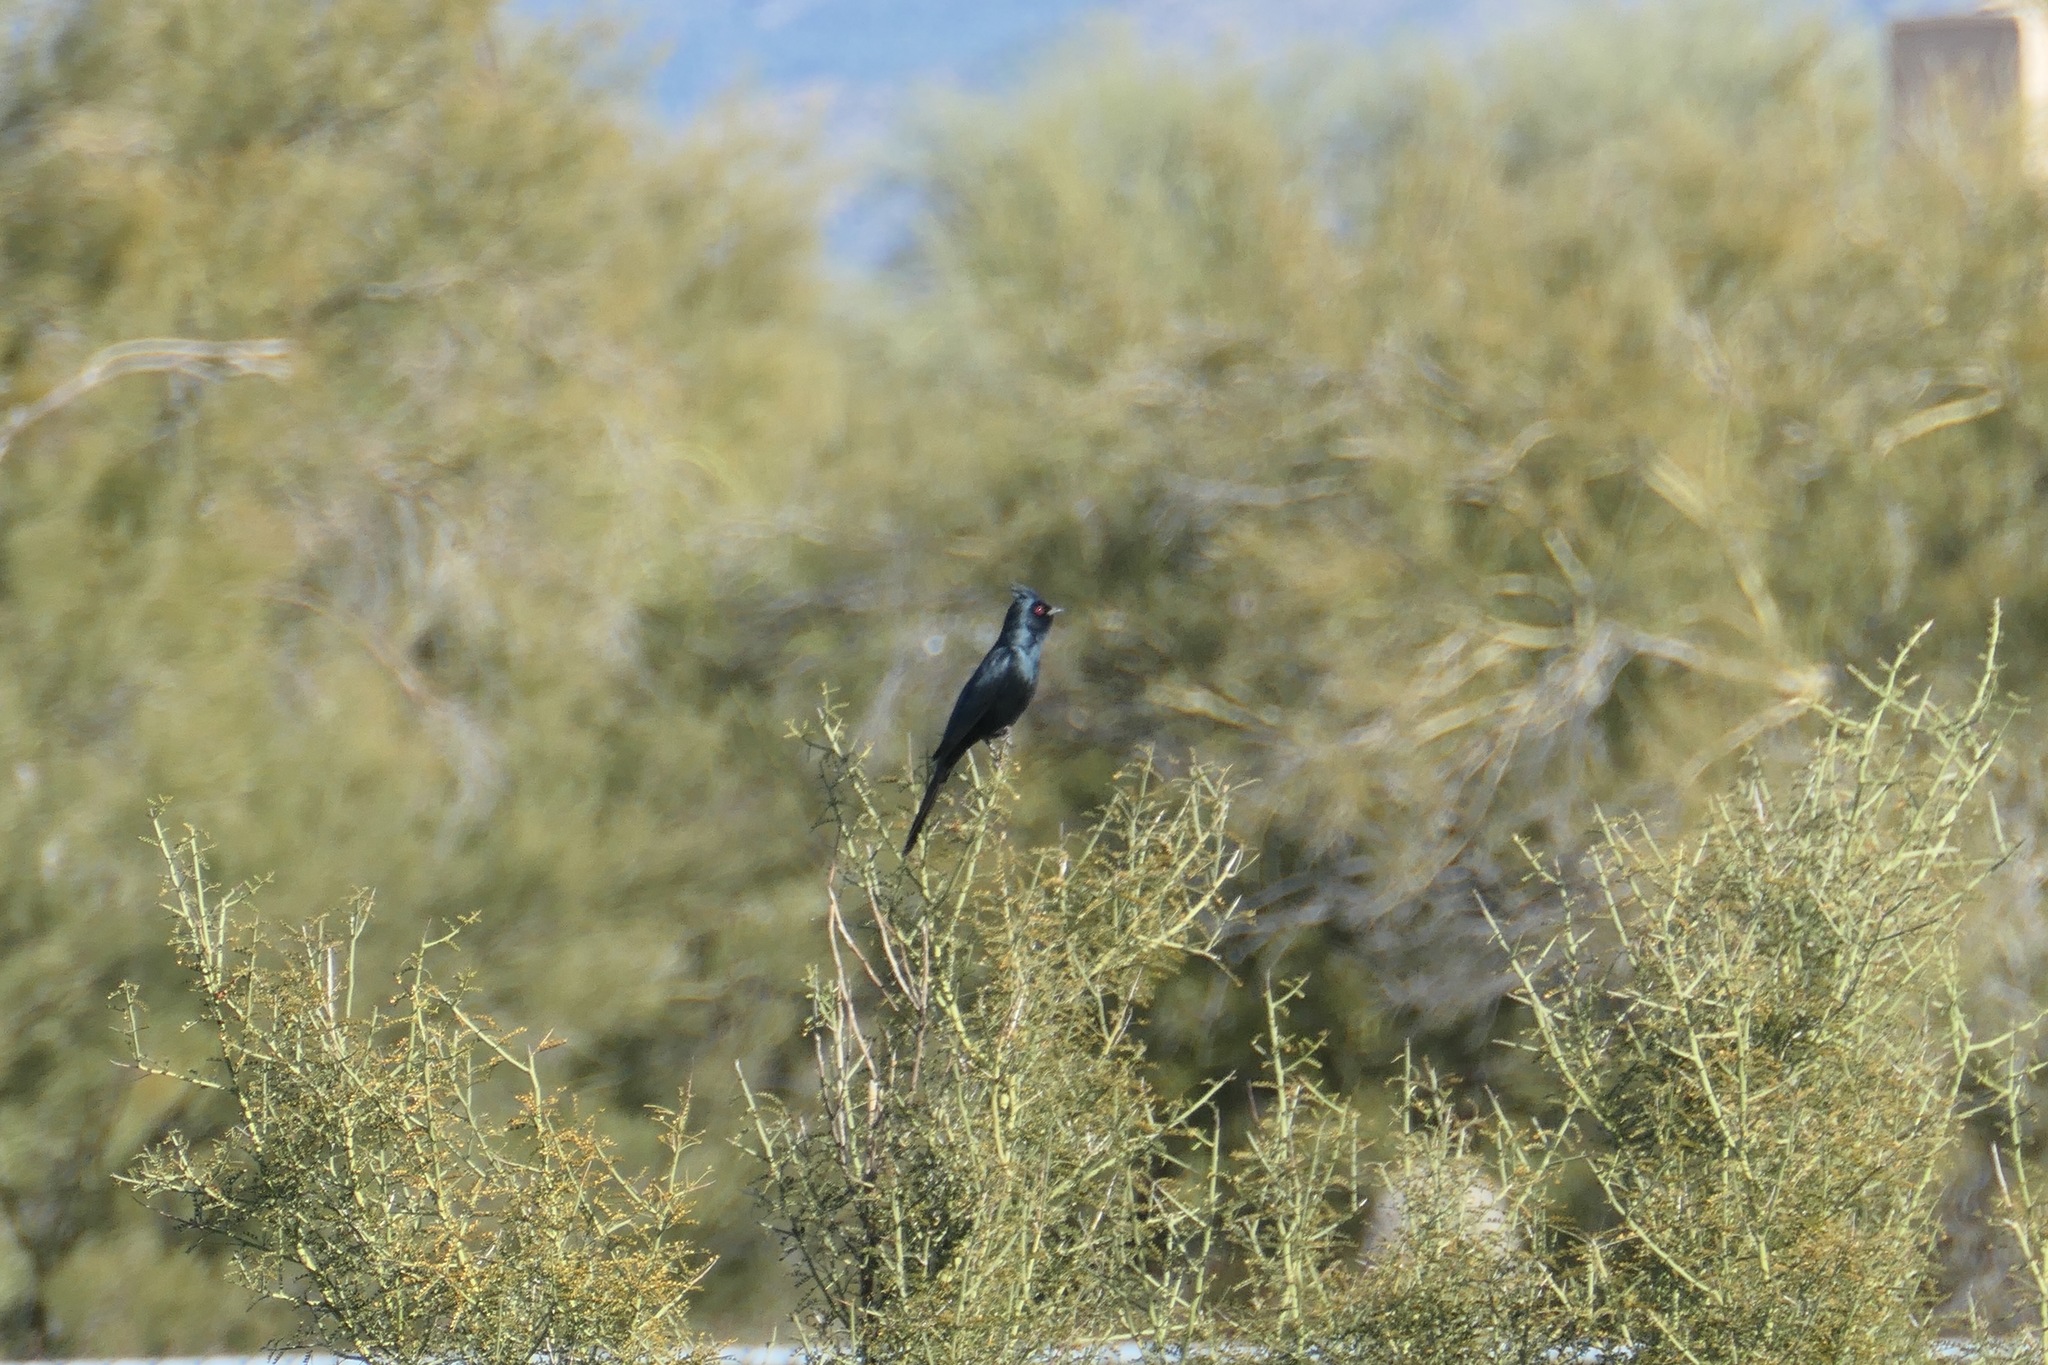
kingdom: Animalia
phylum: Chordata
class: Aves
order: Passeriformes
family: Ptilogonatidae
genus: Phainopepla
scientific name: Phainopepla nitens
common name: Phainopepla
